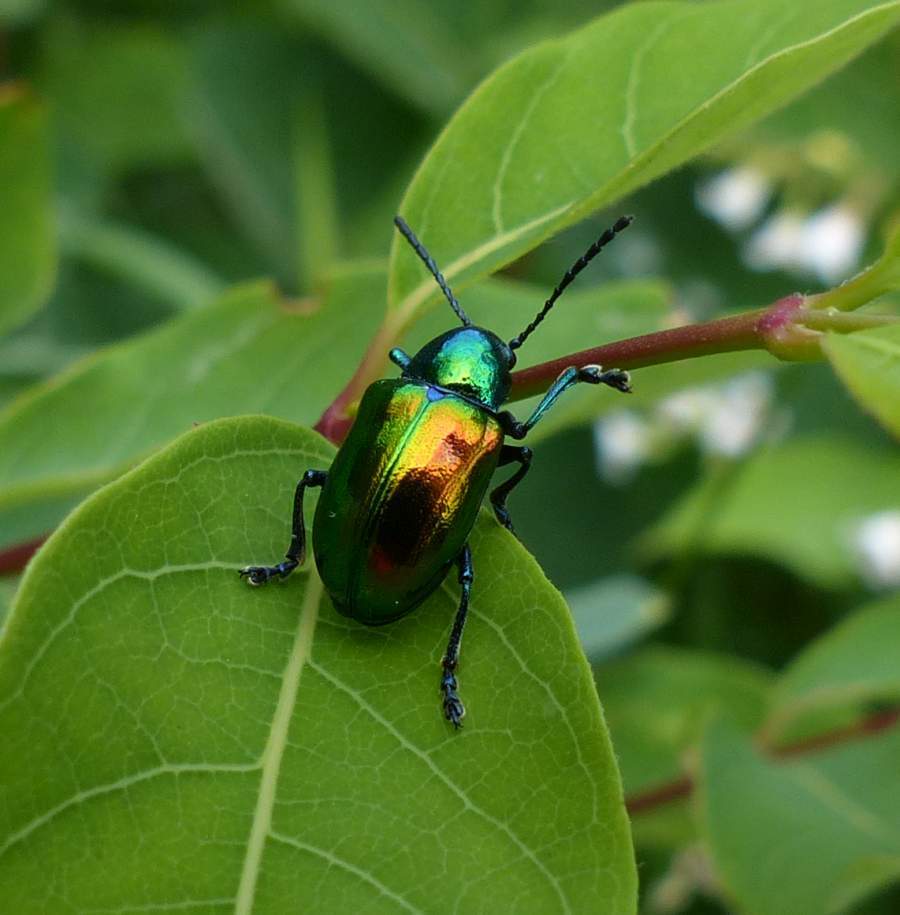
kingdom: Animalia
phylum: Arthropoda
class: Insecta
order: Coleoptera
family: Chrysomelidae
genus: Chrysochus
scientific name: Chrysochus auratus
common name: Dogbane leaf beetle
